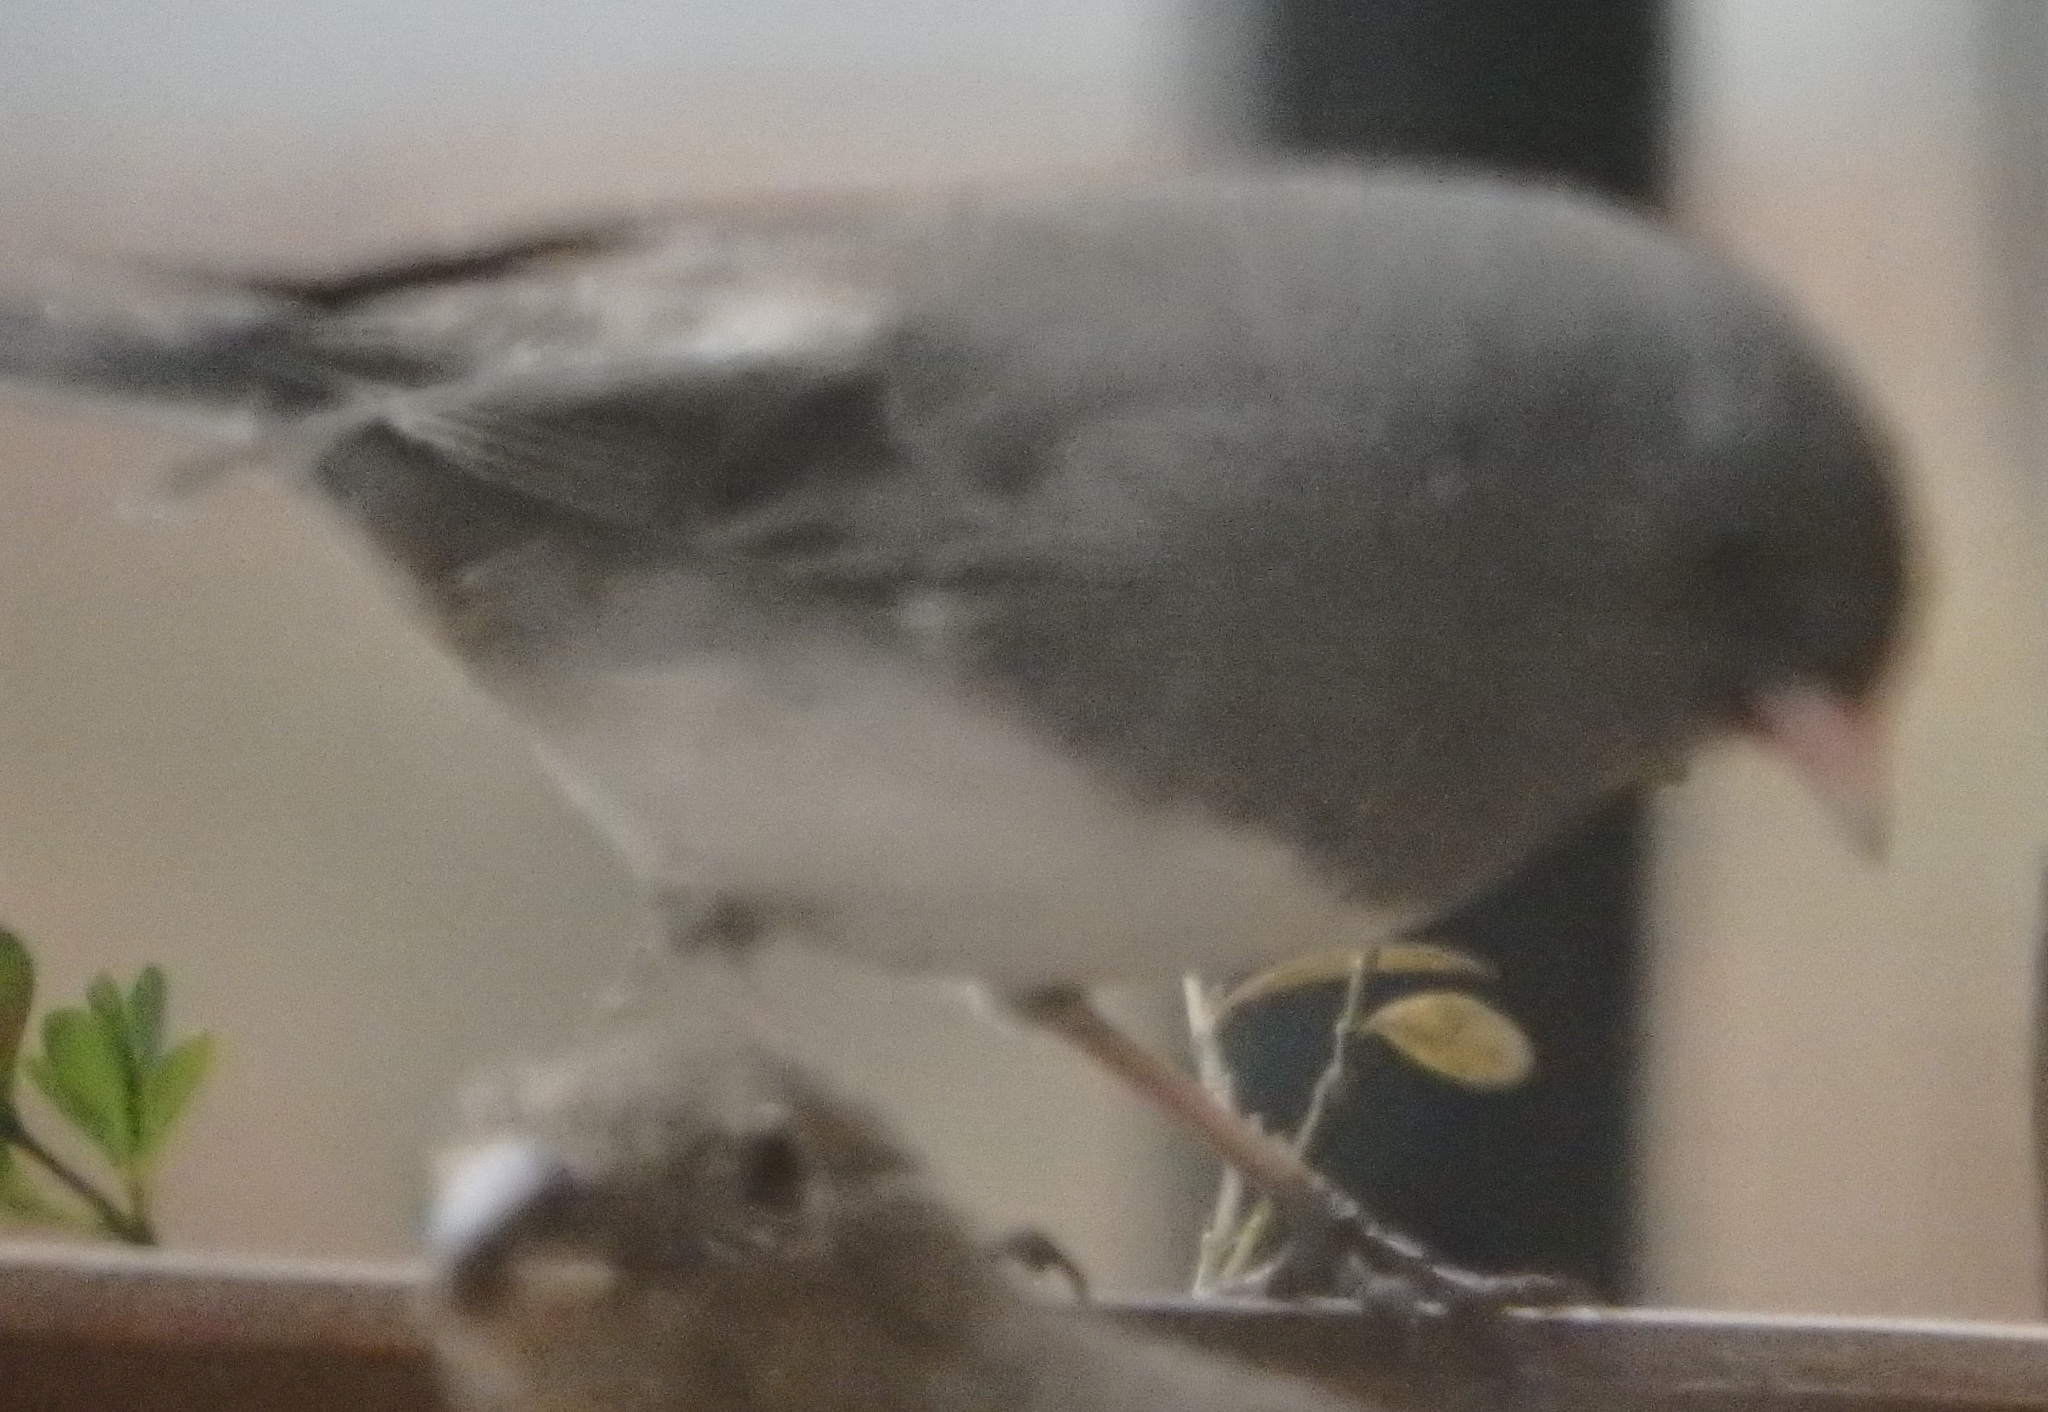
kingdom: Animalia
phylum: Chordata
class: Aves
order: Passeriformes
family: Passerellidae
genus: Junco
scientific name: Junco hyemalis
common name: Dark-eyed junco
